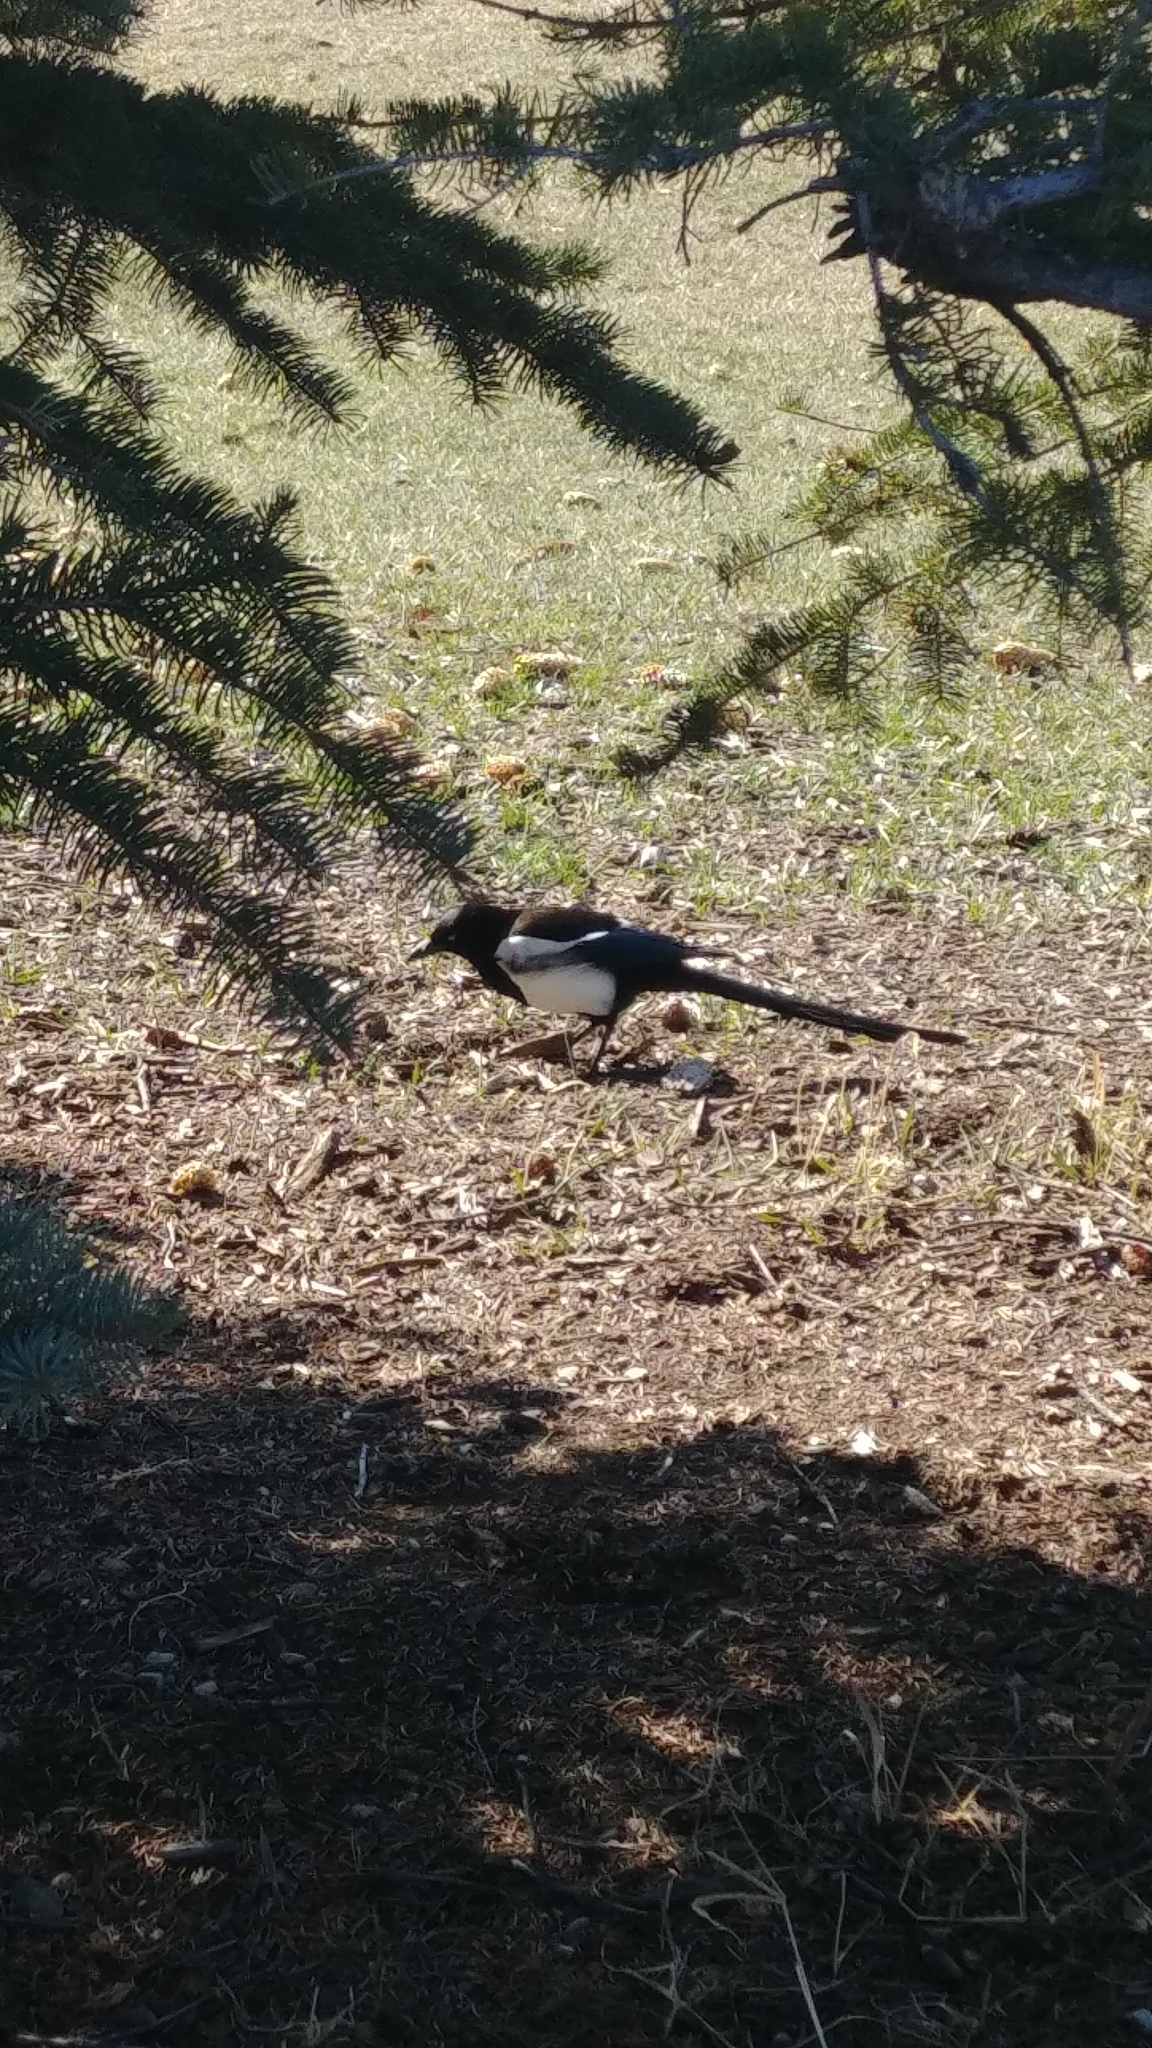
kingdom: Animalia
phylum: Chordata
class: Aves
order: Passeriformes
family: Corvidae
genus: Pica
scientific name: Pica hudsonia
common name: Black-billed magpie
